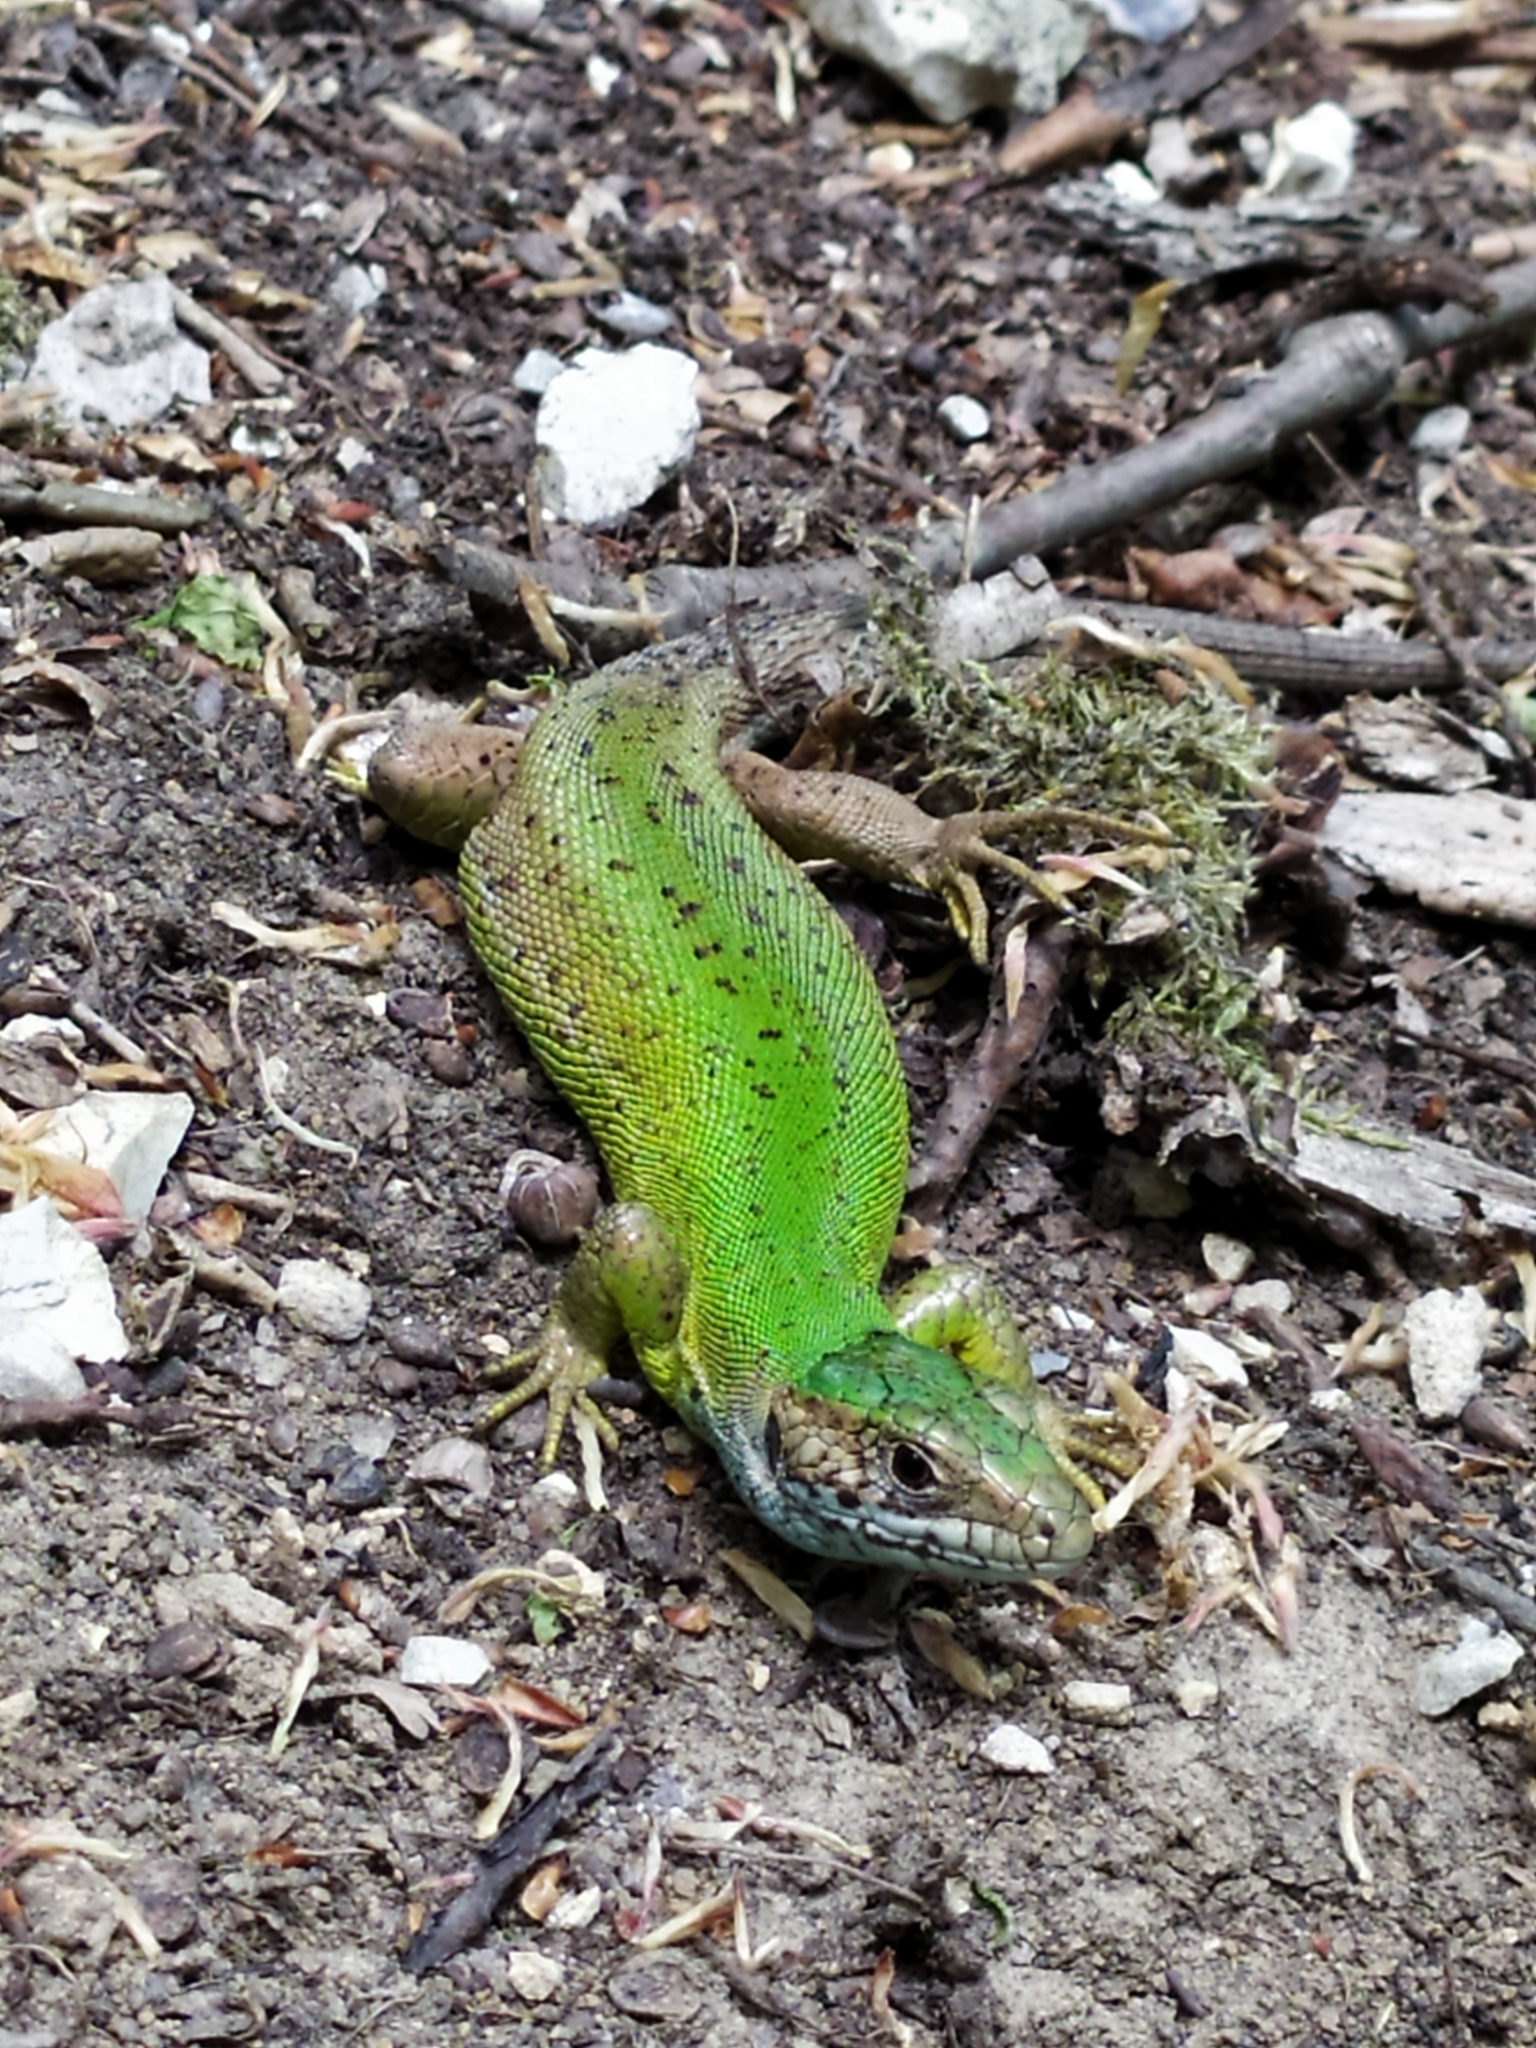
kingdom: Animalia
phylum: Chordata
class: Squamata
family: Lacertidae
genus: Lacerta
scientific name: Lacerta viridis
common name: European green lizard
